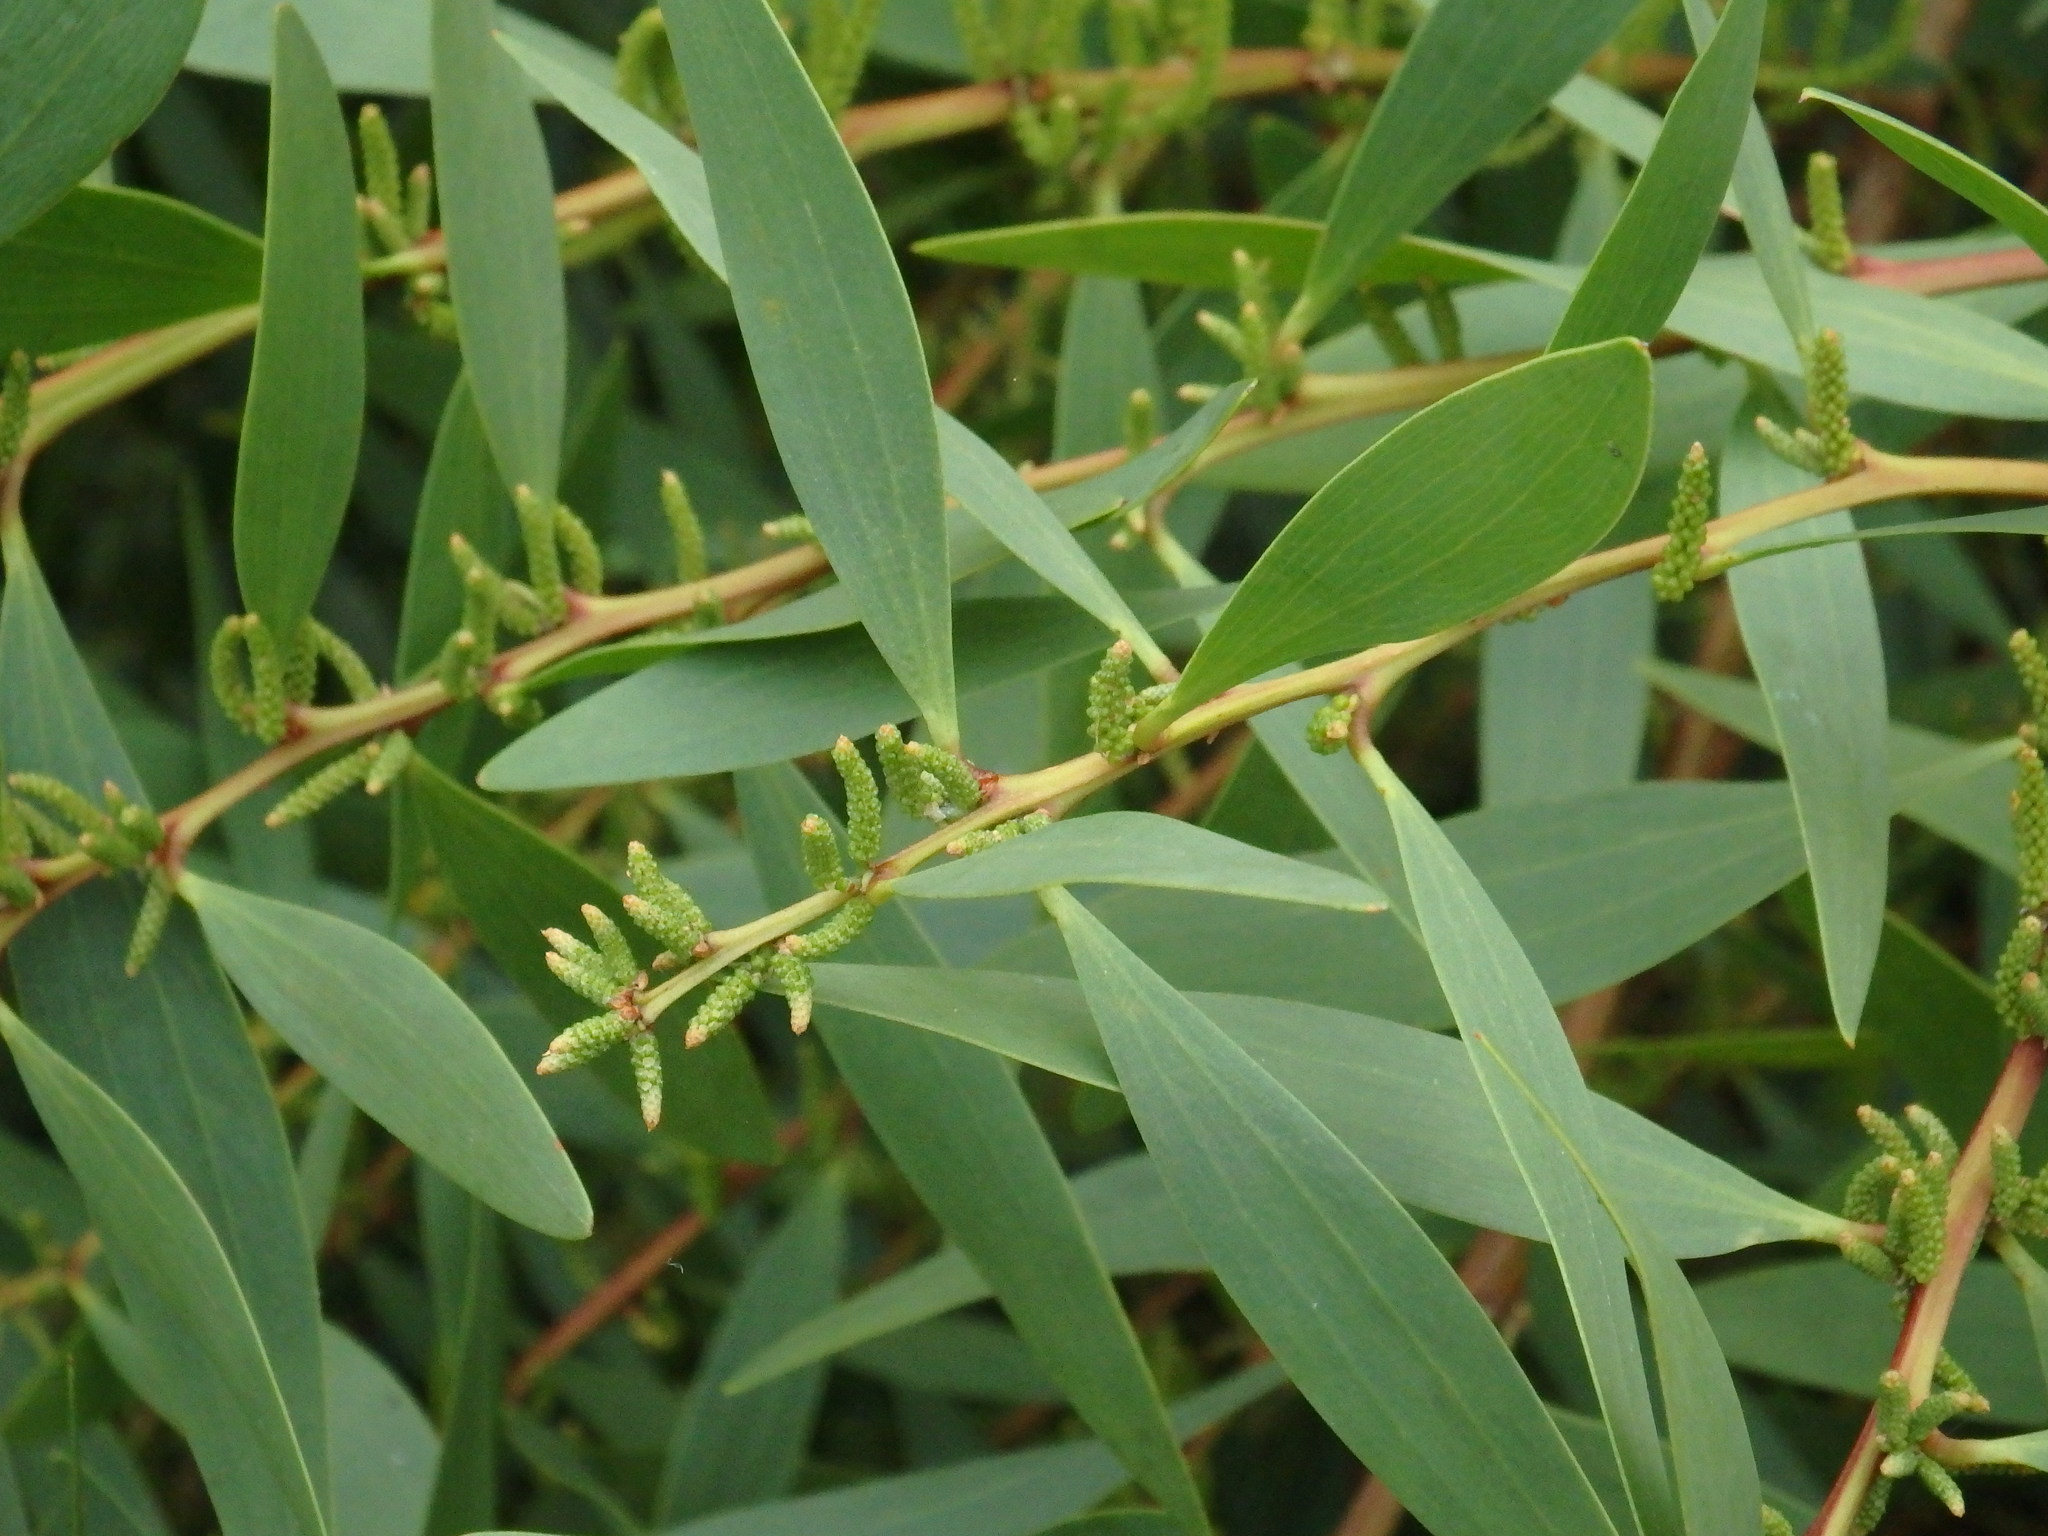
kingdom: Plantae
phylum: Tracheophyta
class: Magnoliopsida
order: Fabales
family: Fabaceae
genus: Acacia
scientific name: Acacia longifolia
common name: Sydney golden wattle
